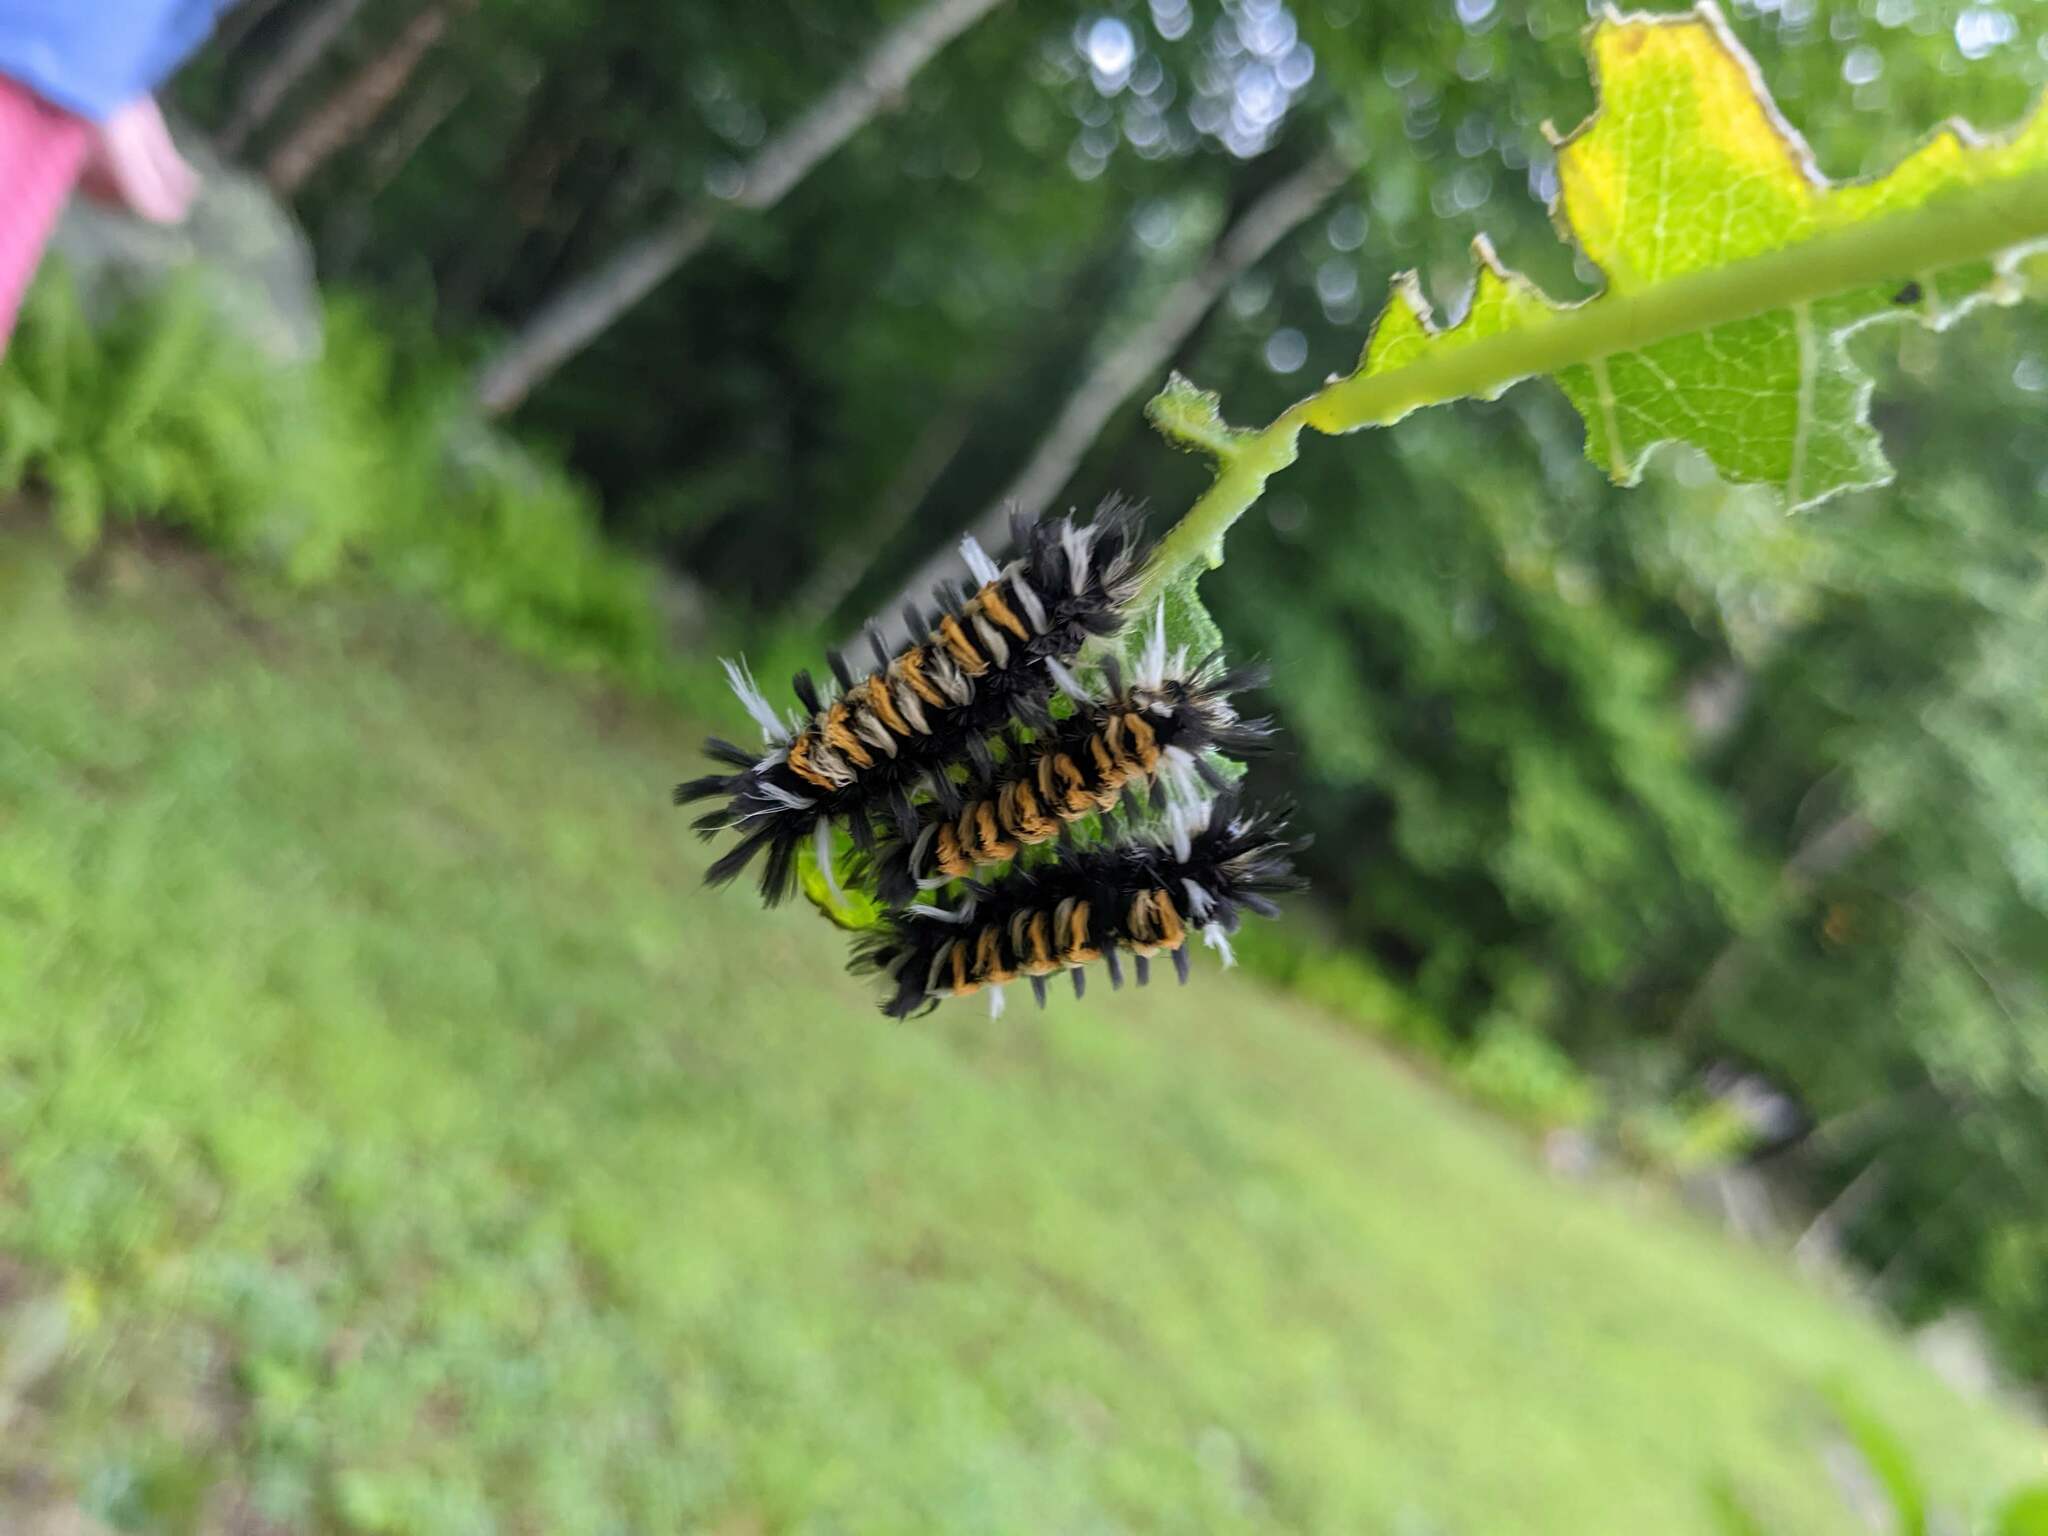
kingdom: Animalia
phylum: Arthropoda
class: Insecta
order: Lepidoptera
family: Erebidae
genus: Euchaetes
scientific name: Euchaetes egle
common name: Milkweed tussock moth
